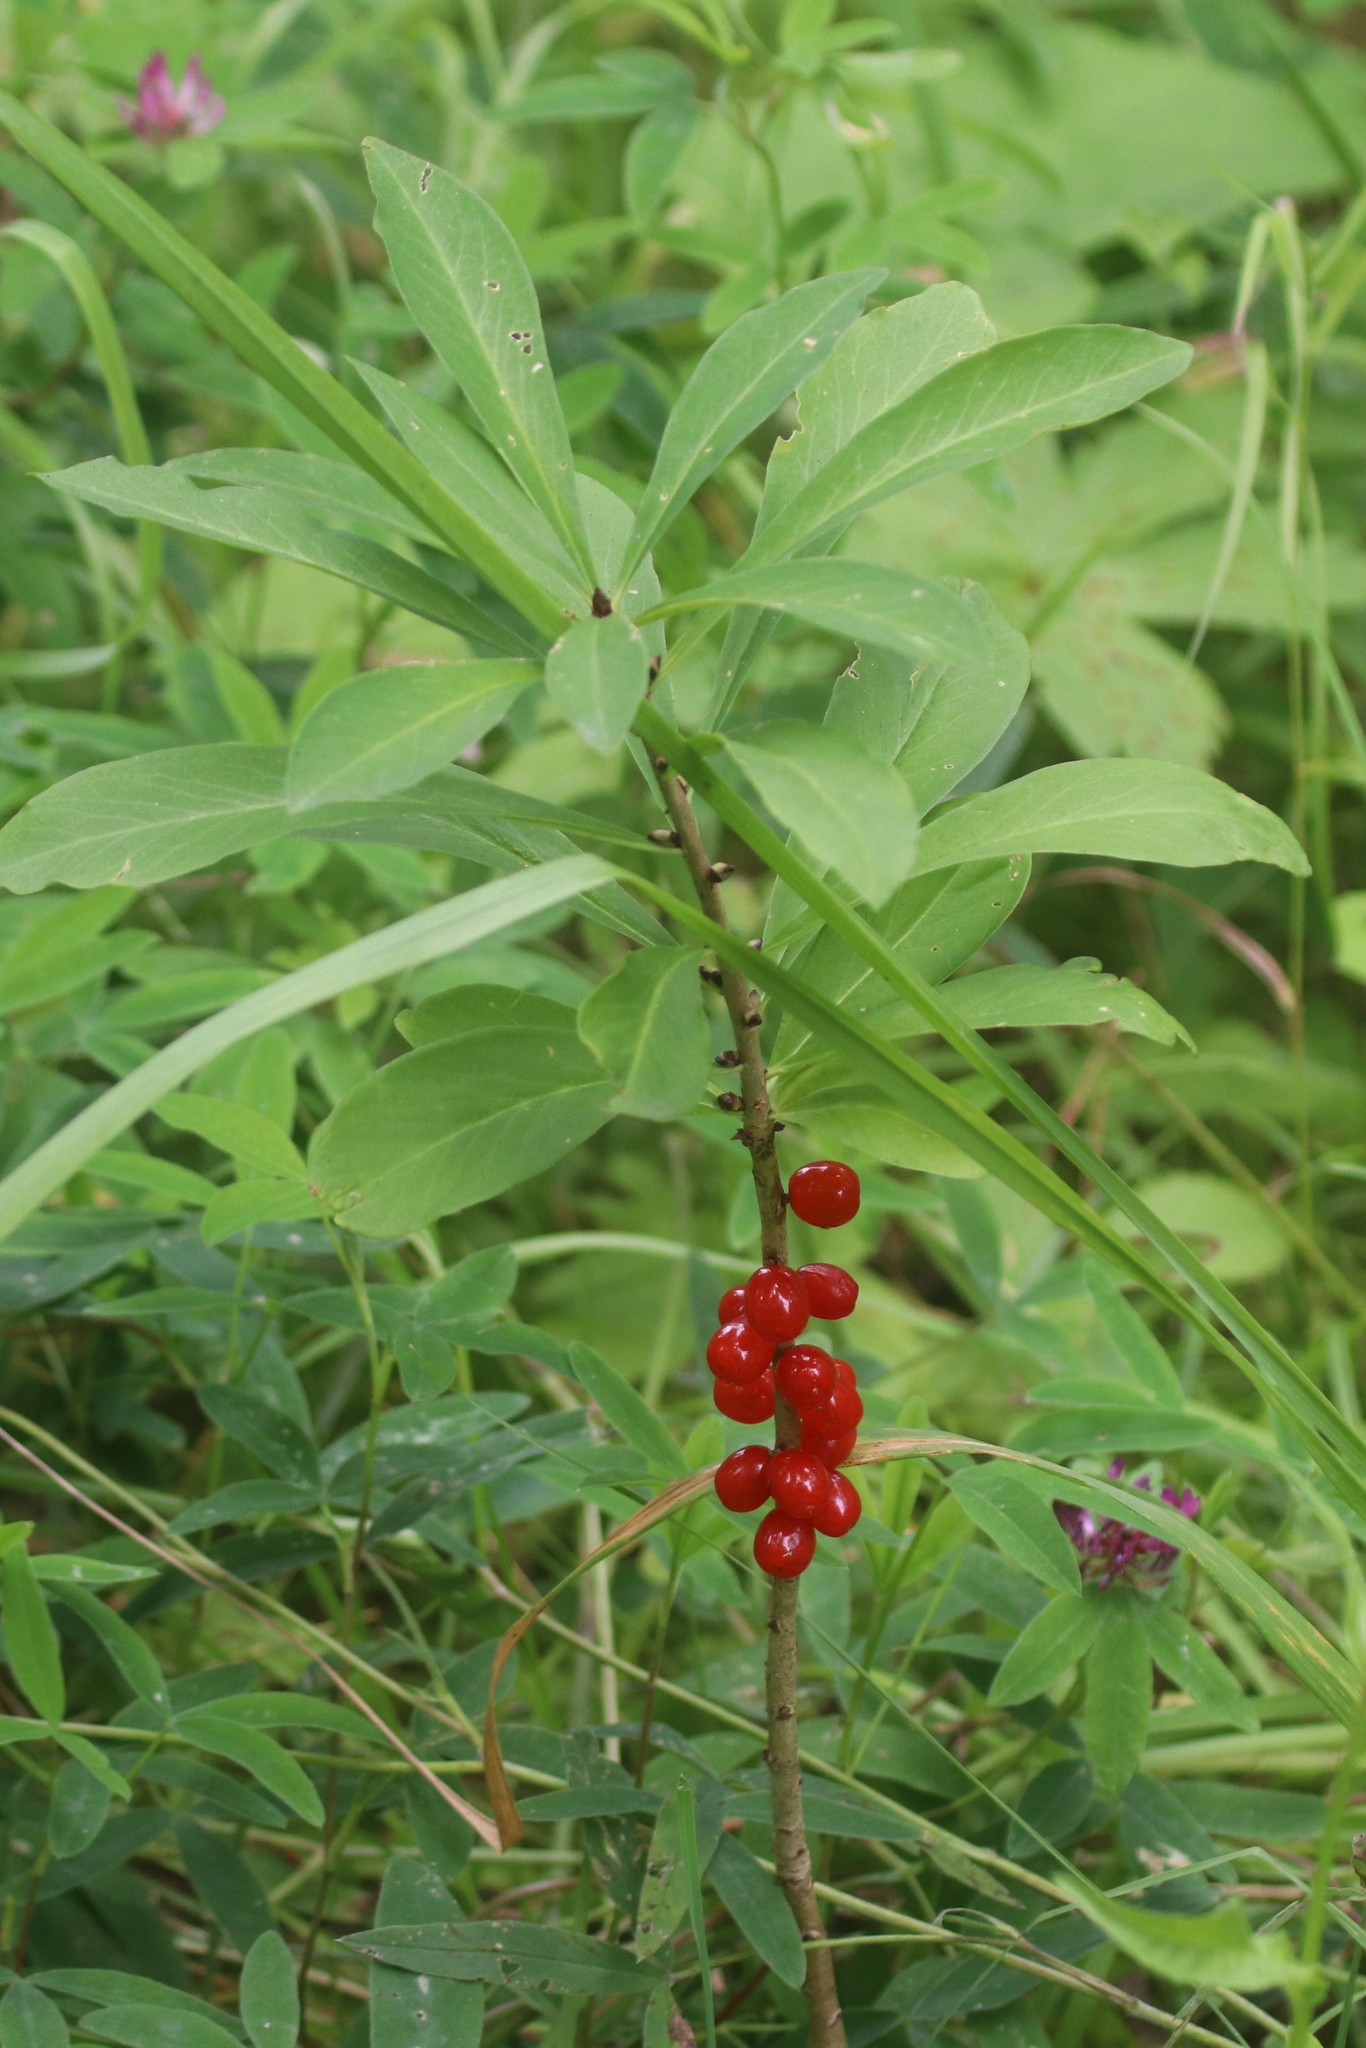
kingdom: Plantae
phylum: Tracheophyta
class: Magnoliopsida
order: Malvales
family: Thymelaeaceae
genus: Daphne
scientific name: Daphne mezereum
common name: Mezereon
